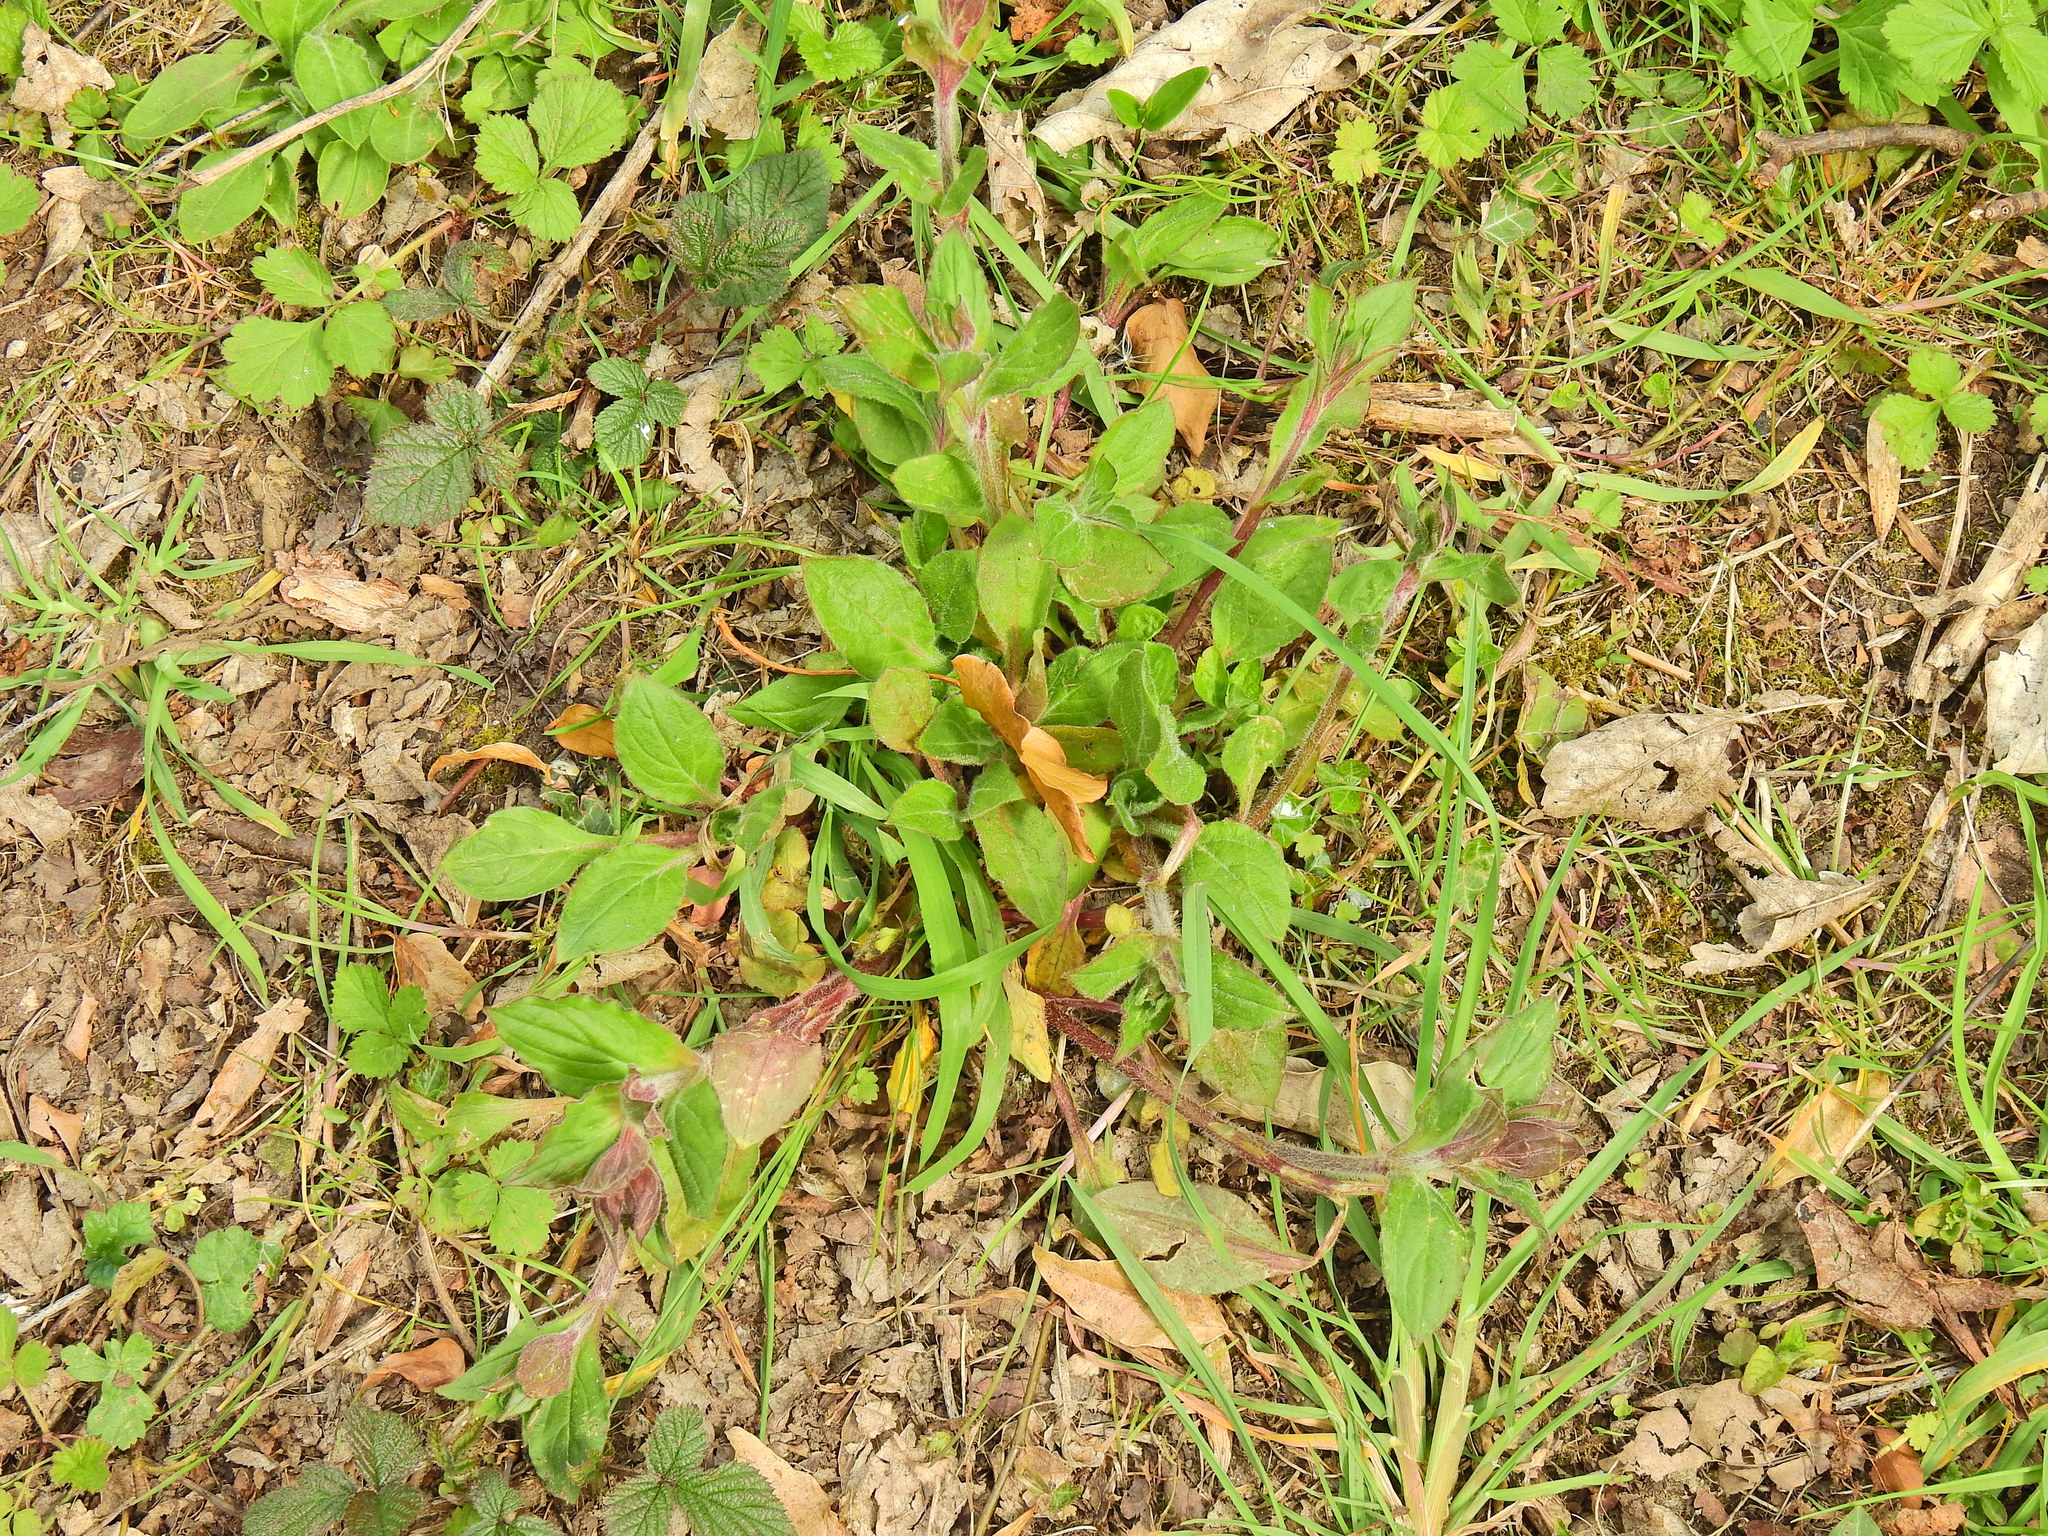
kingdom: Plantae
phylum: Tracheophyta
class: Magnoliopsida
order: Caryophyllales
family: Caryophyllaceae
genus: Silene
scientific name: Silene dioica
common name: Red campion
